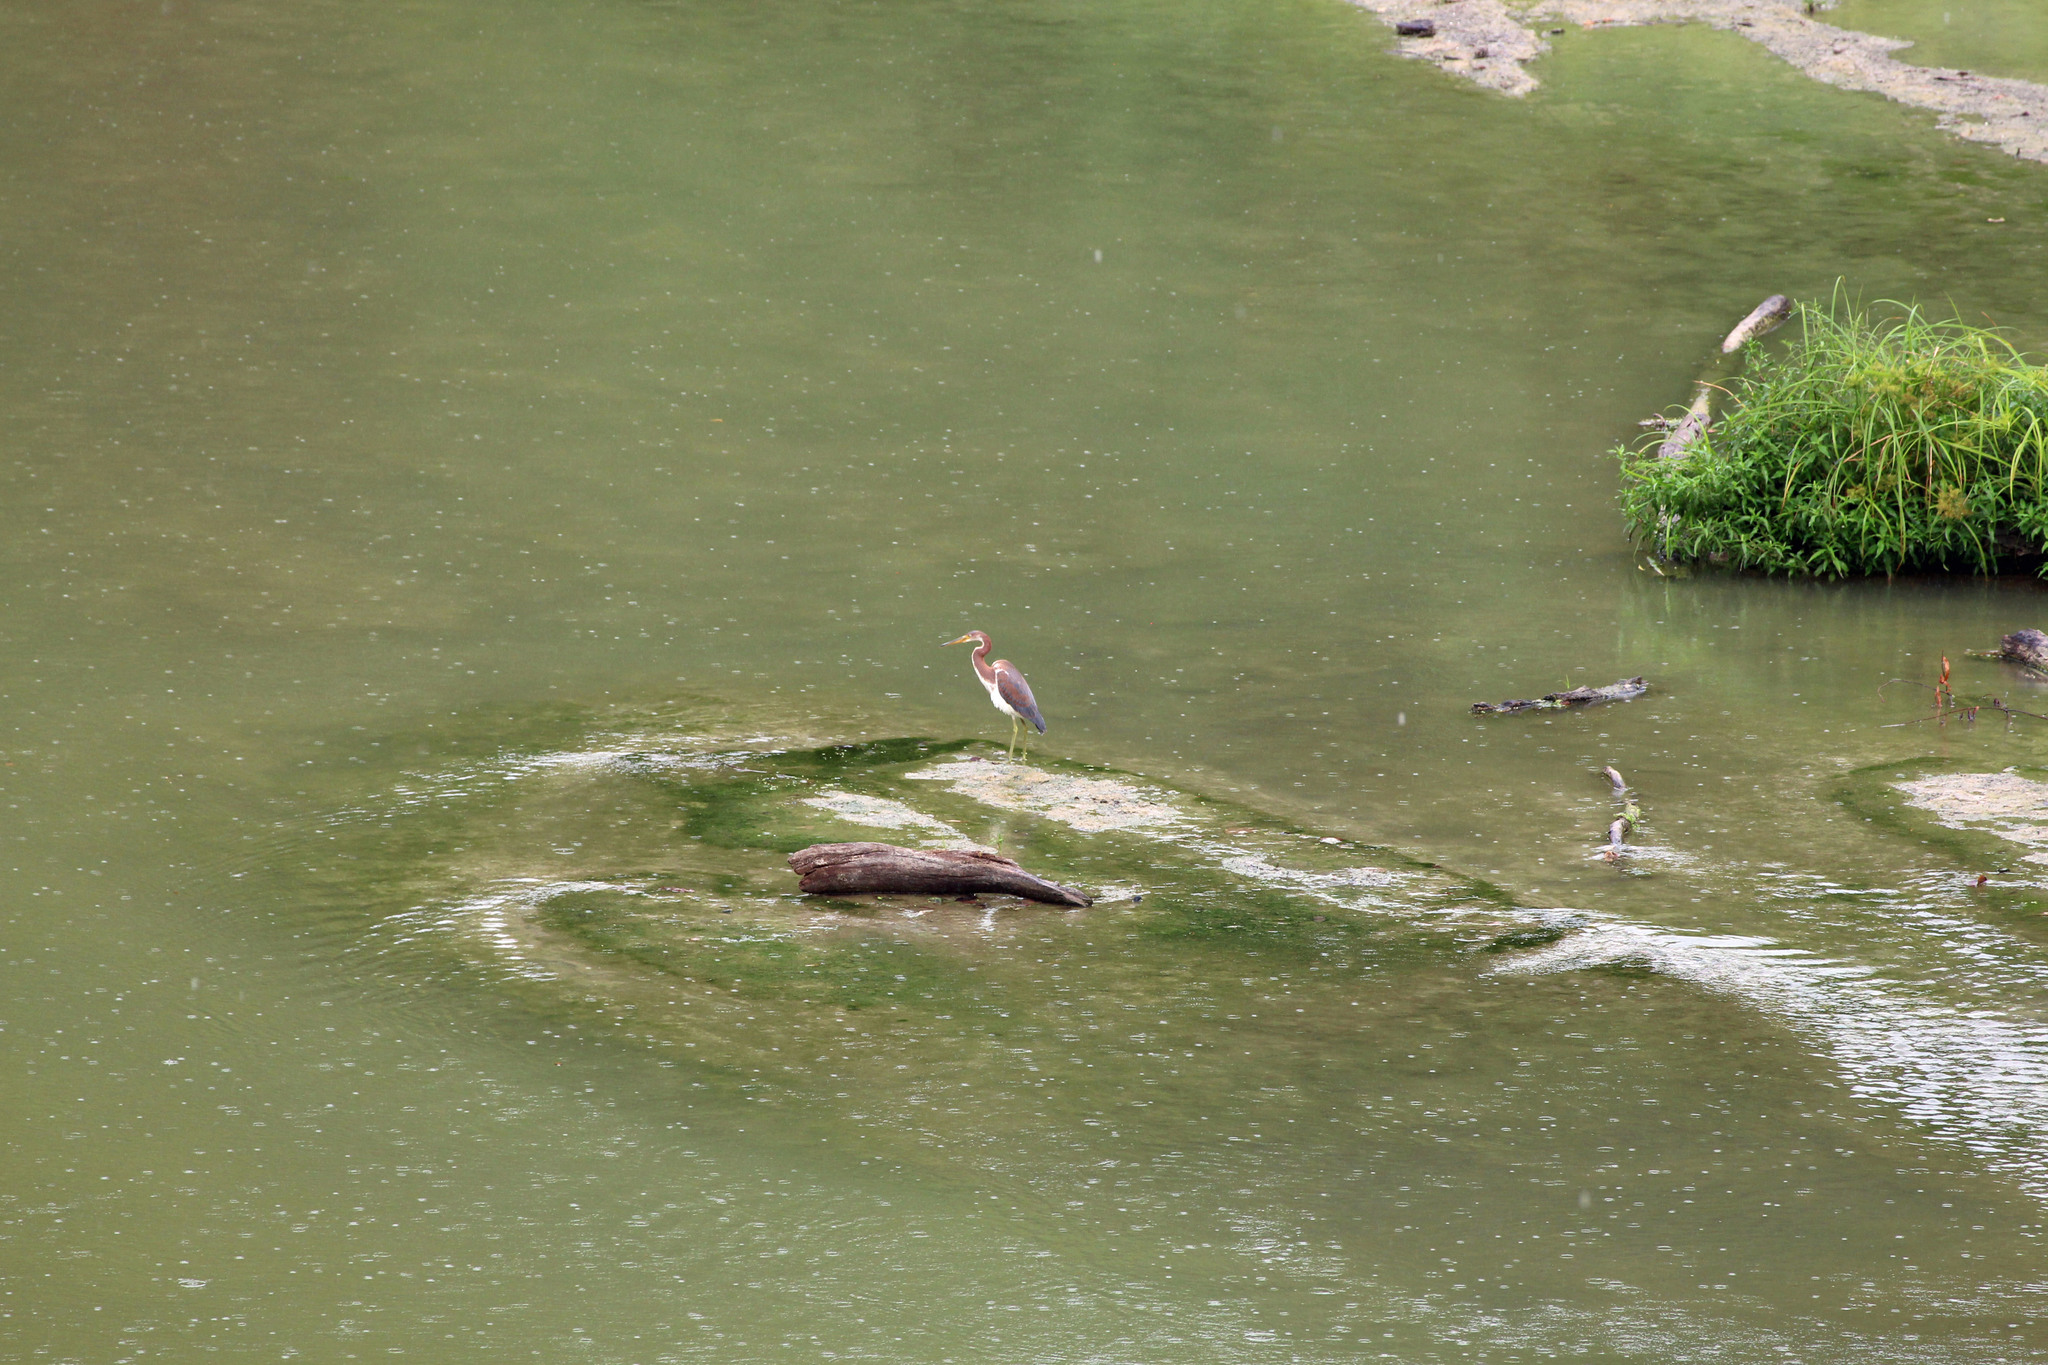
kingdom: Animalia
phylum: Chordata
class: Aves
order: Pelecaniformes
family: Ardeidae
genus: Egretta
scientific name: Egretta tricolor
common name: Tricolored heron
